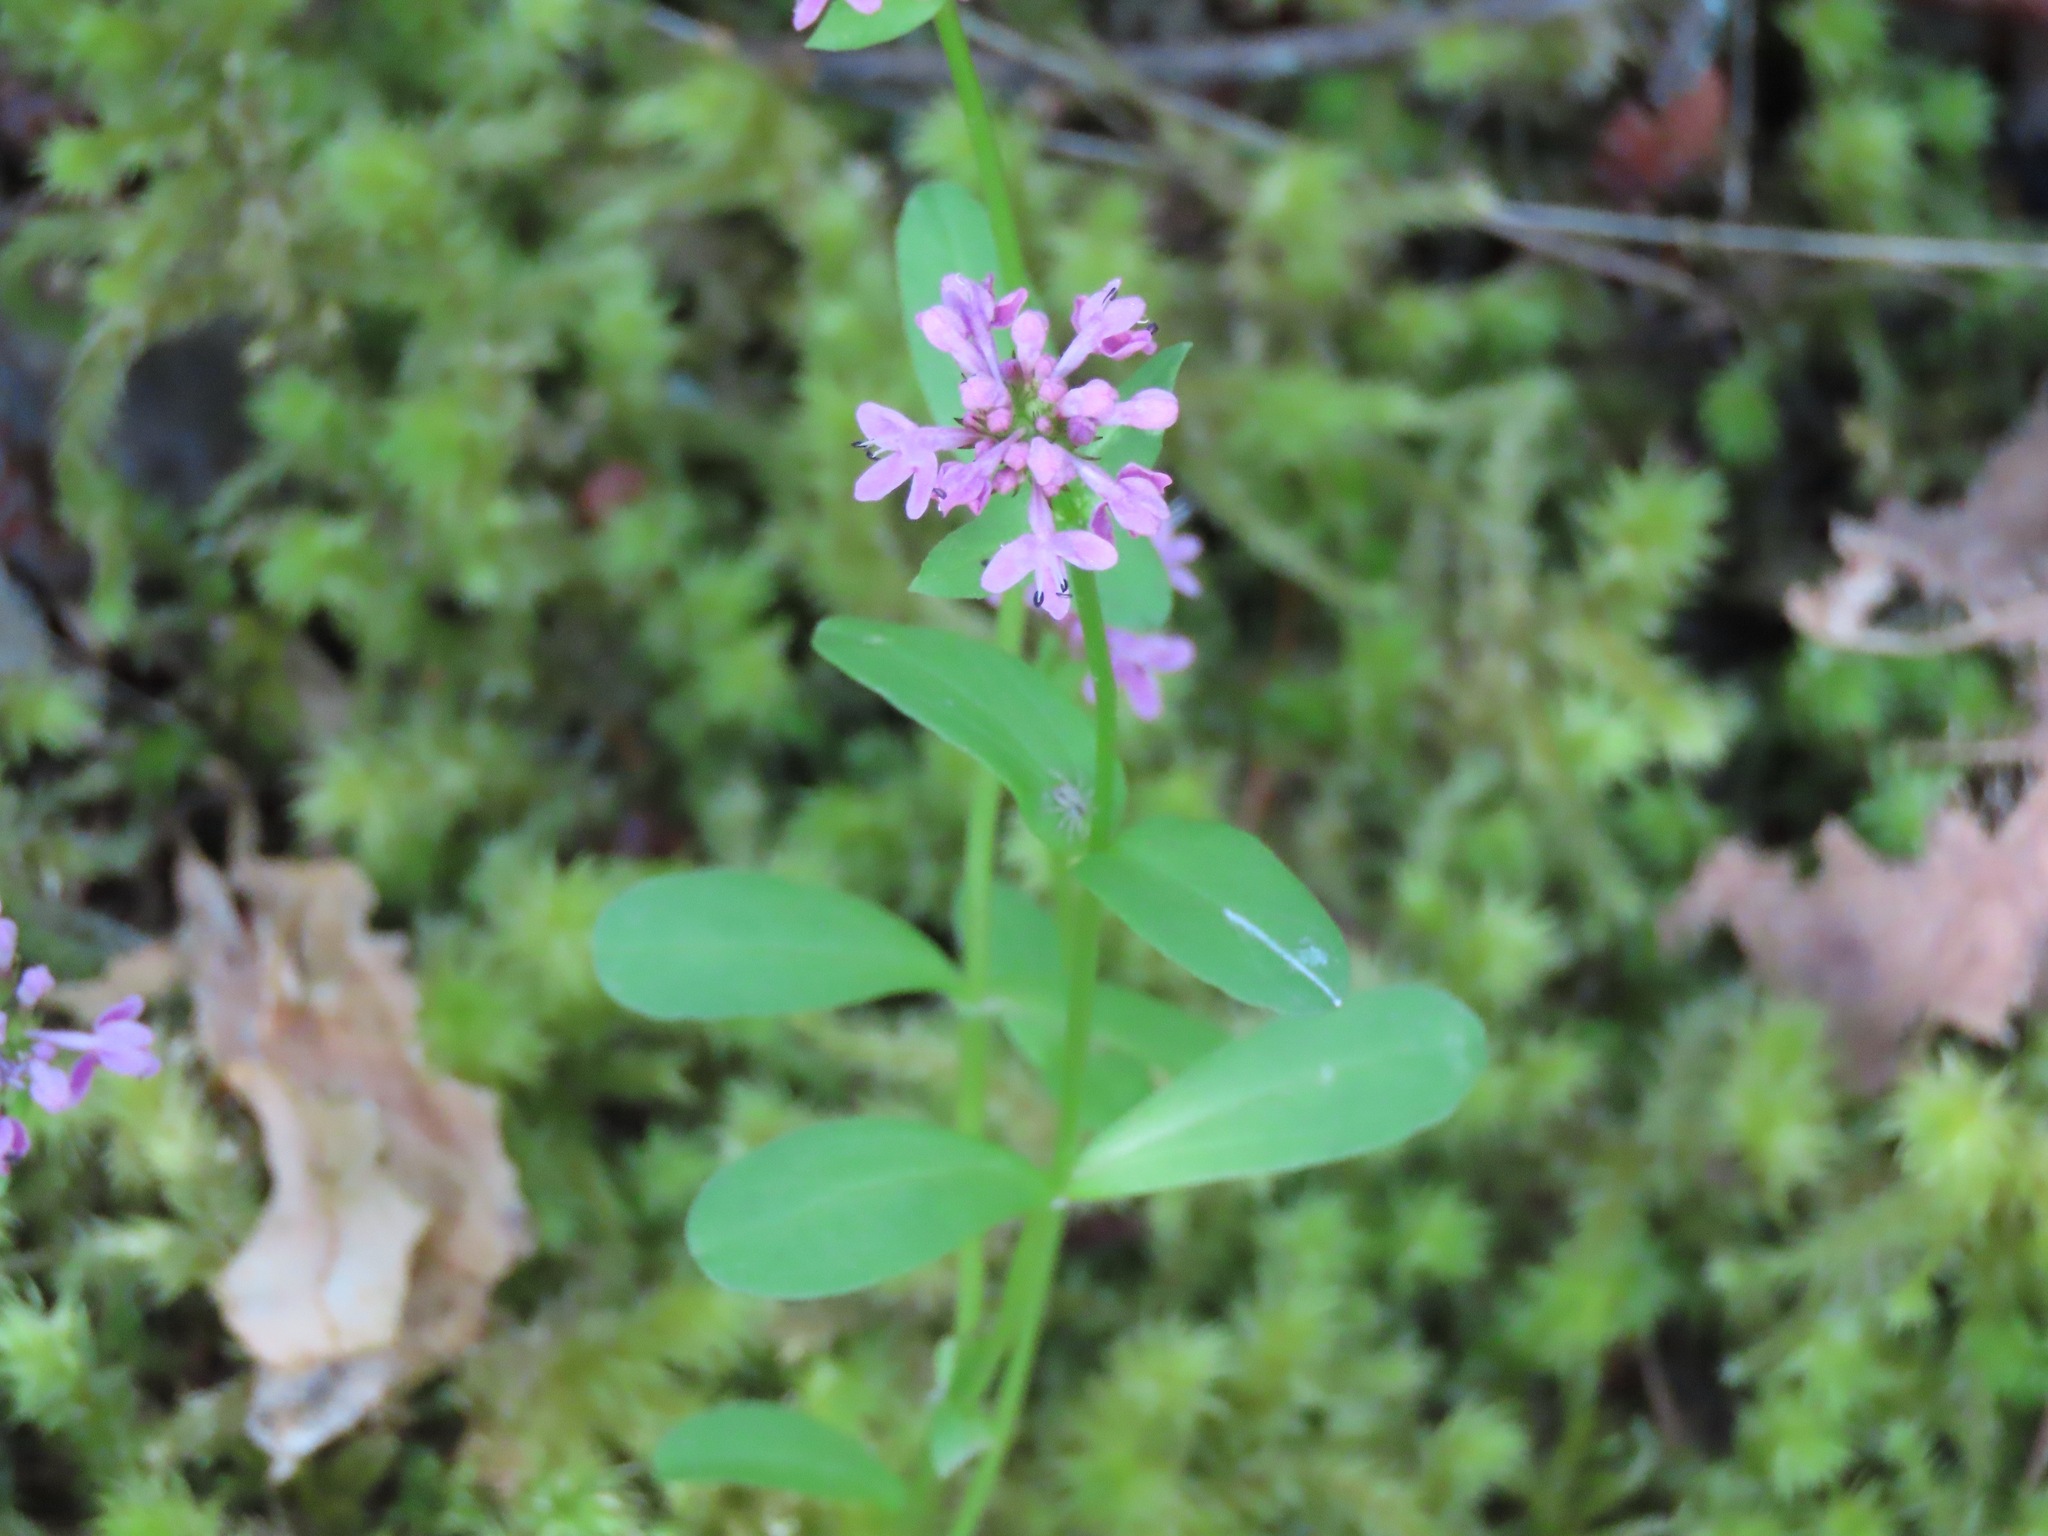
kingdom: Plantae
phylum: Tracheophyta
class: Magnoliopsida
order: Dipsacales
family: Caprifoliaceae
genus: Plectritis
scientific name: Plectritis congesta
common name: Pink plectritis
